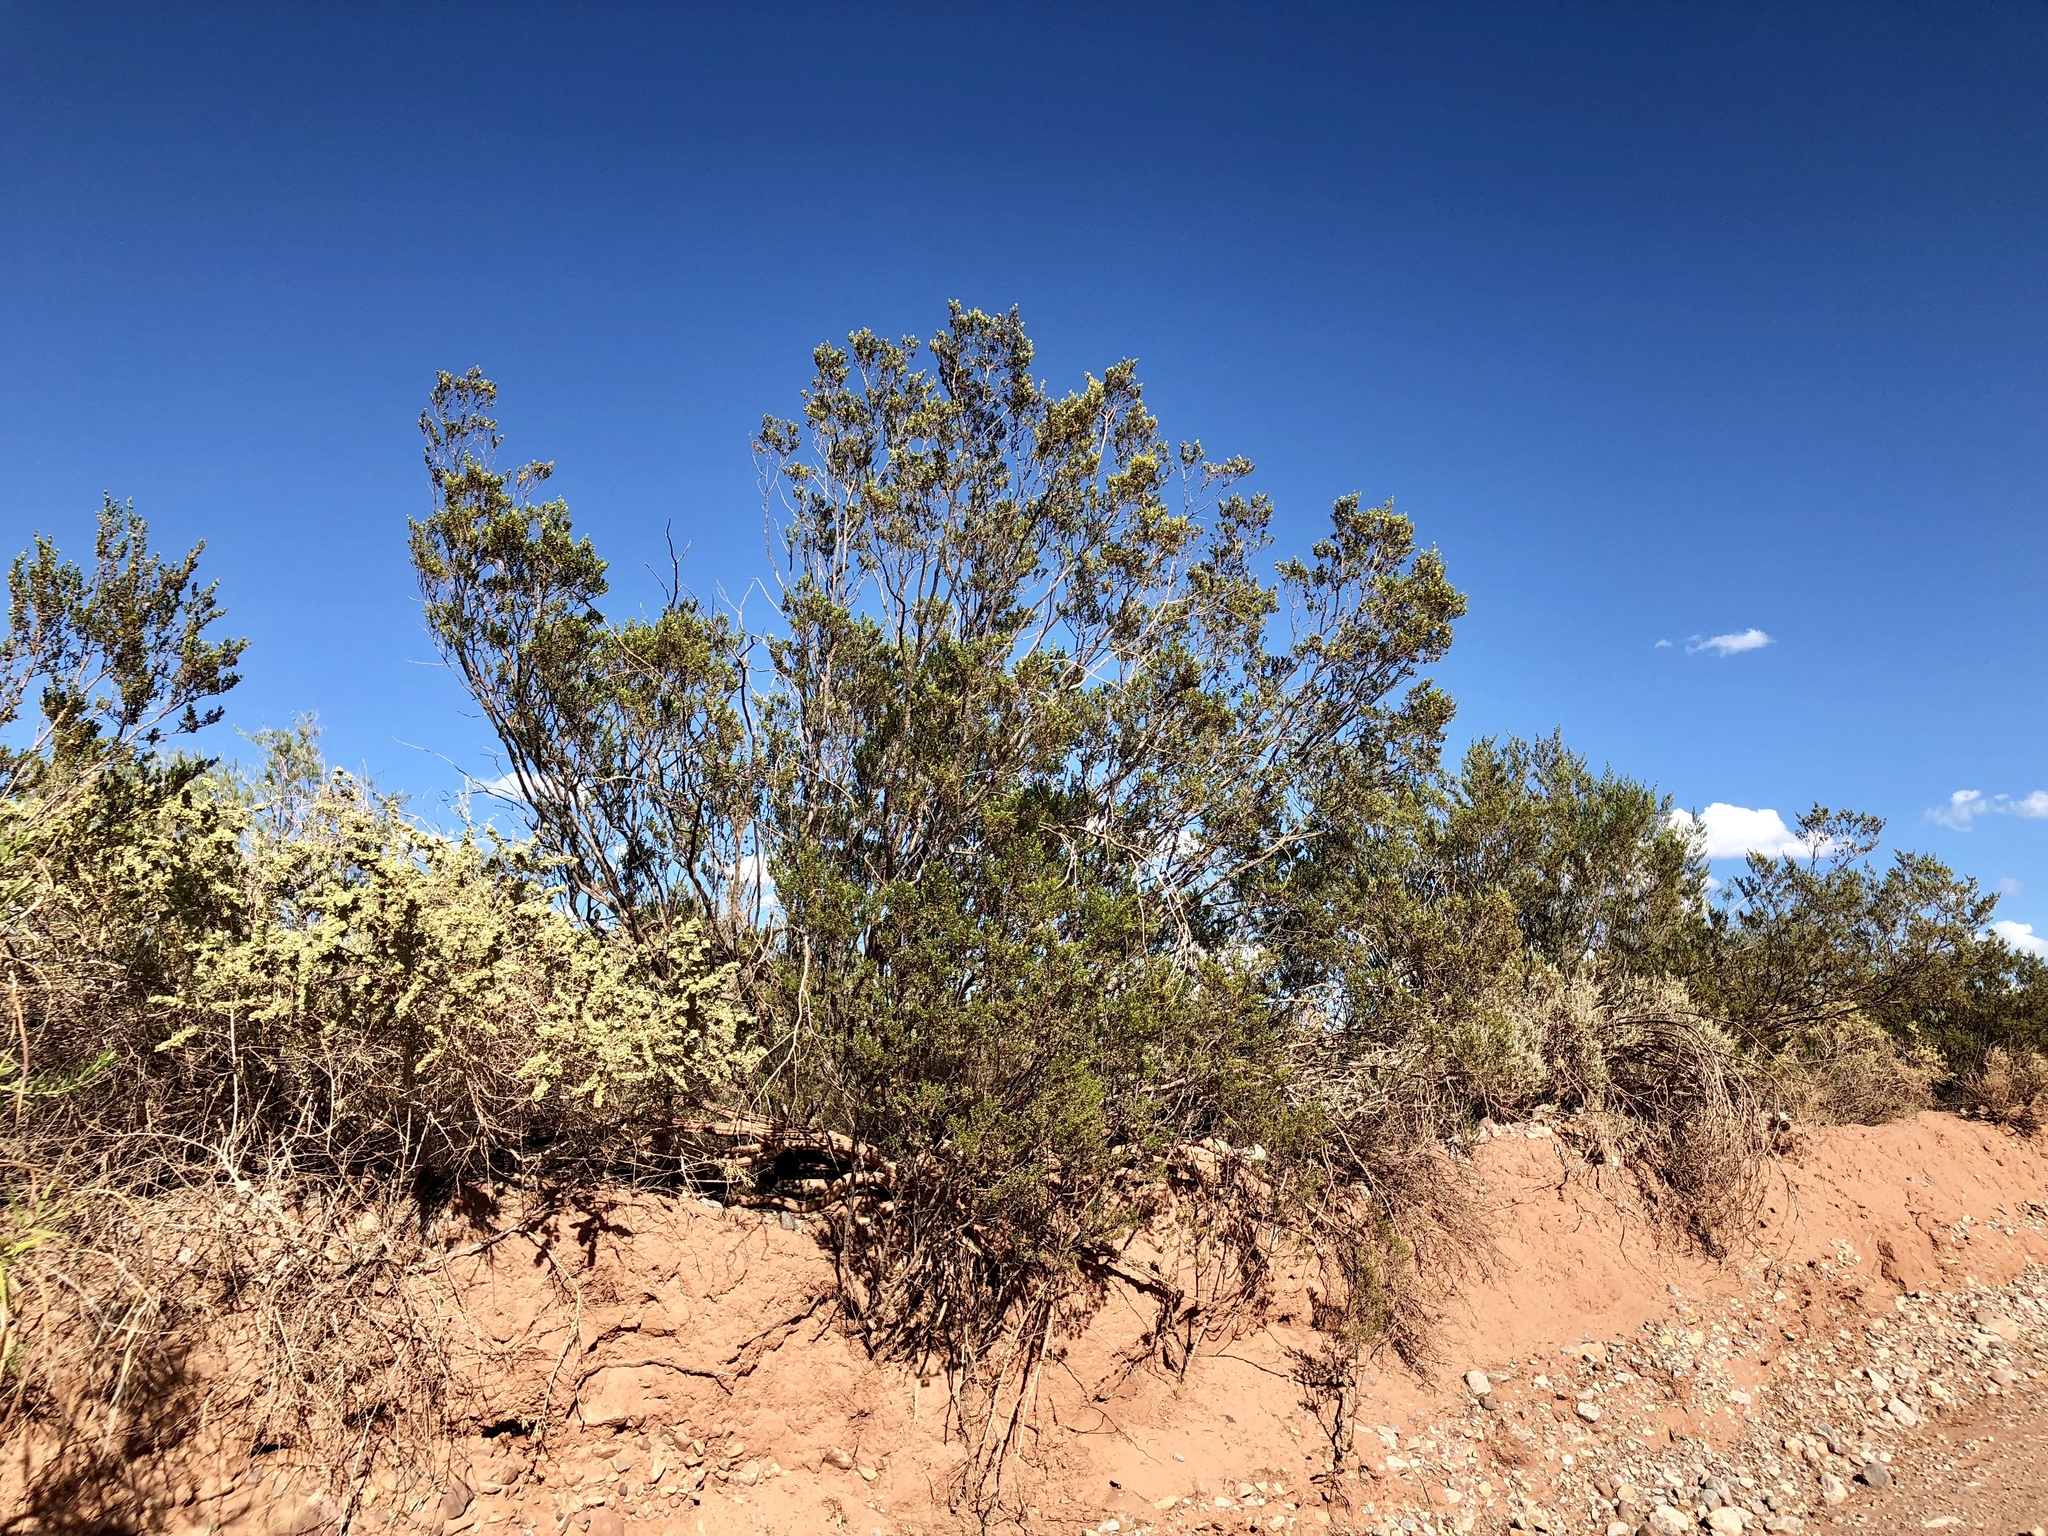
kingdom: Plantae
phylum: Tracheophyta
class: Magnoliopsida
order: Zygophyllales
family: Zygophyllaceae
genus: Larrea
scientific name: Larrea tridentata
